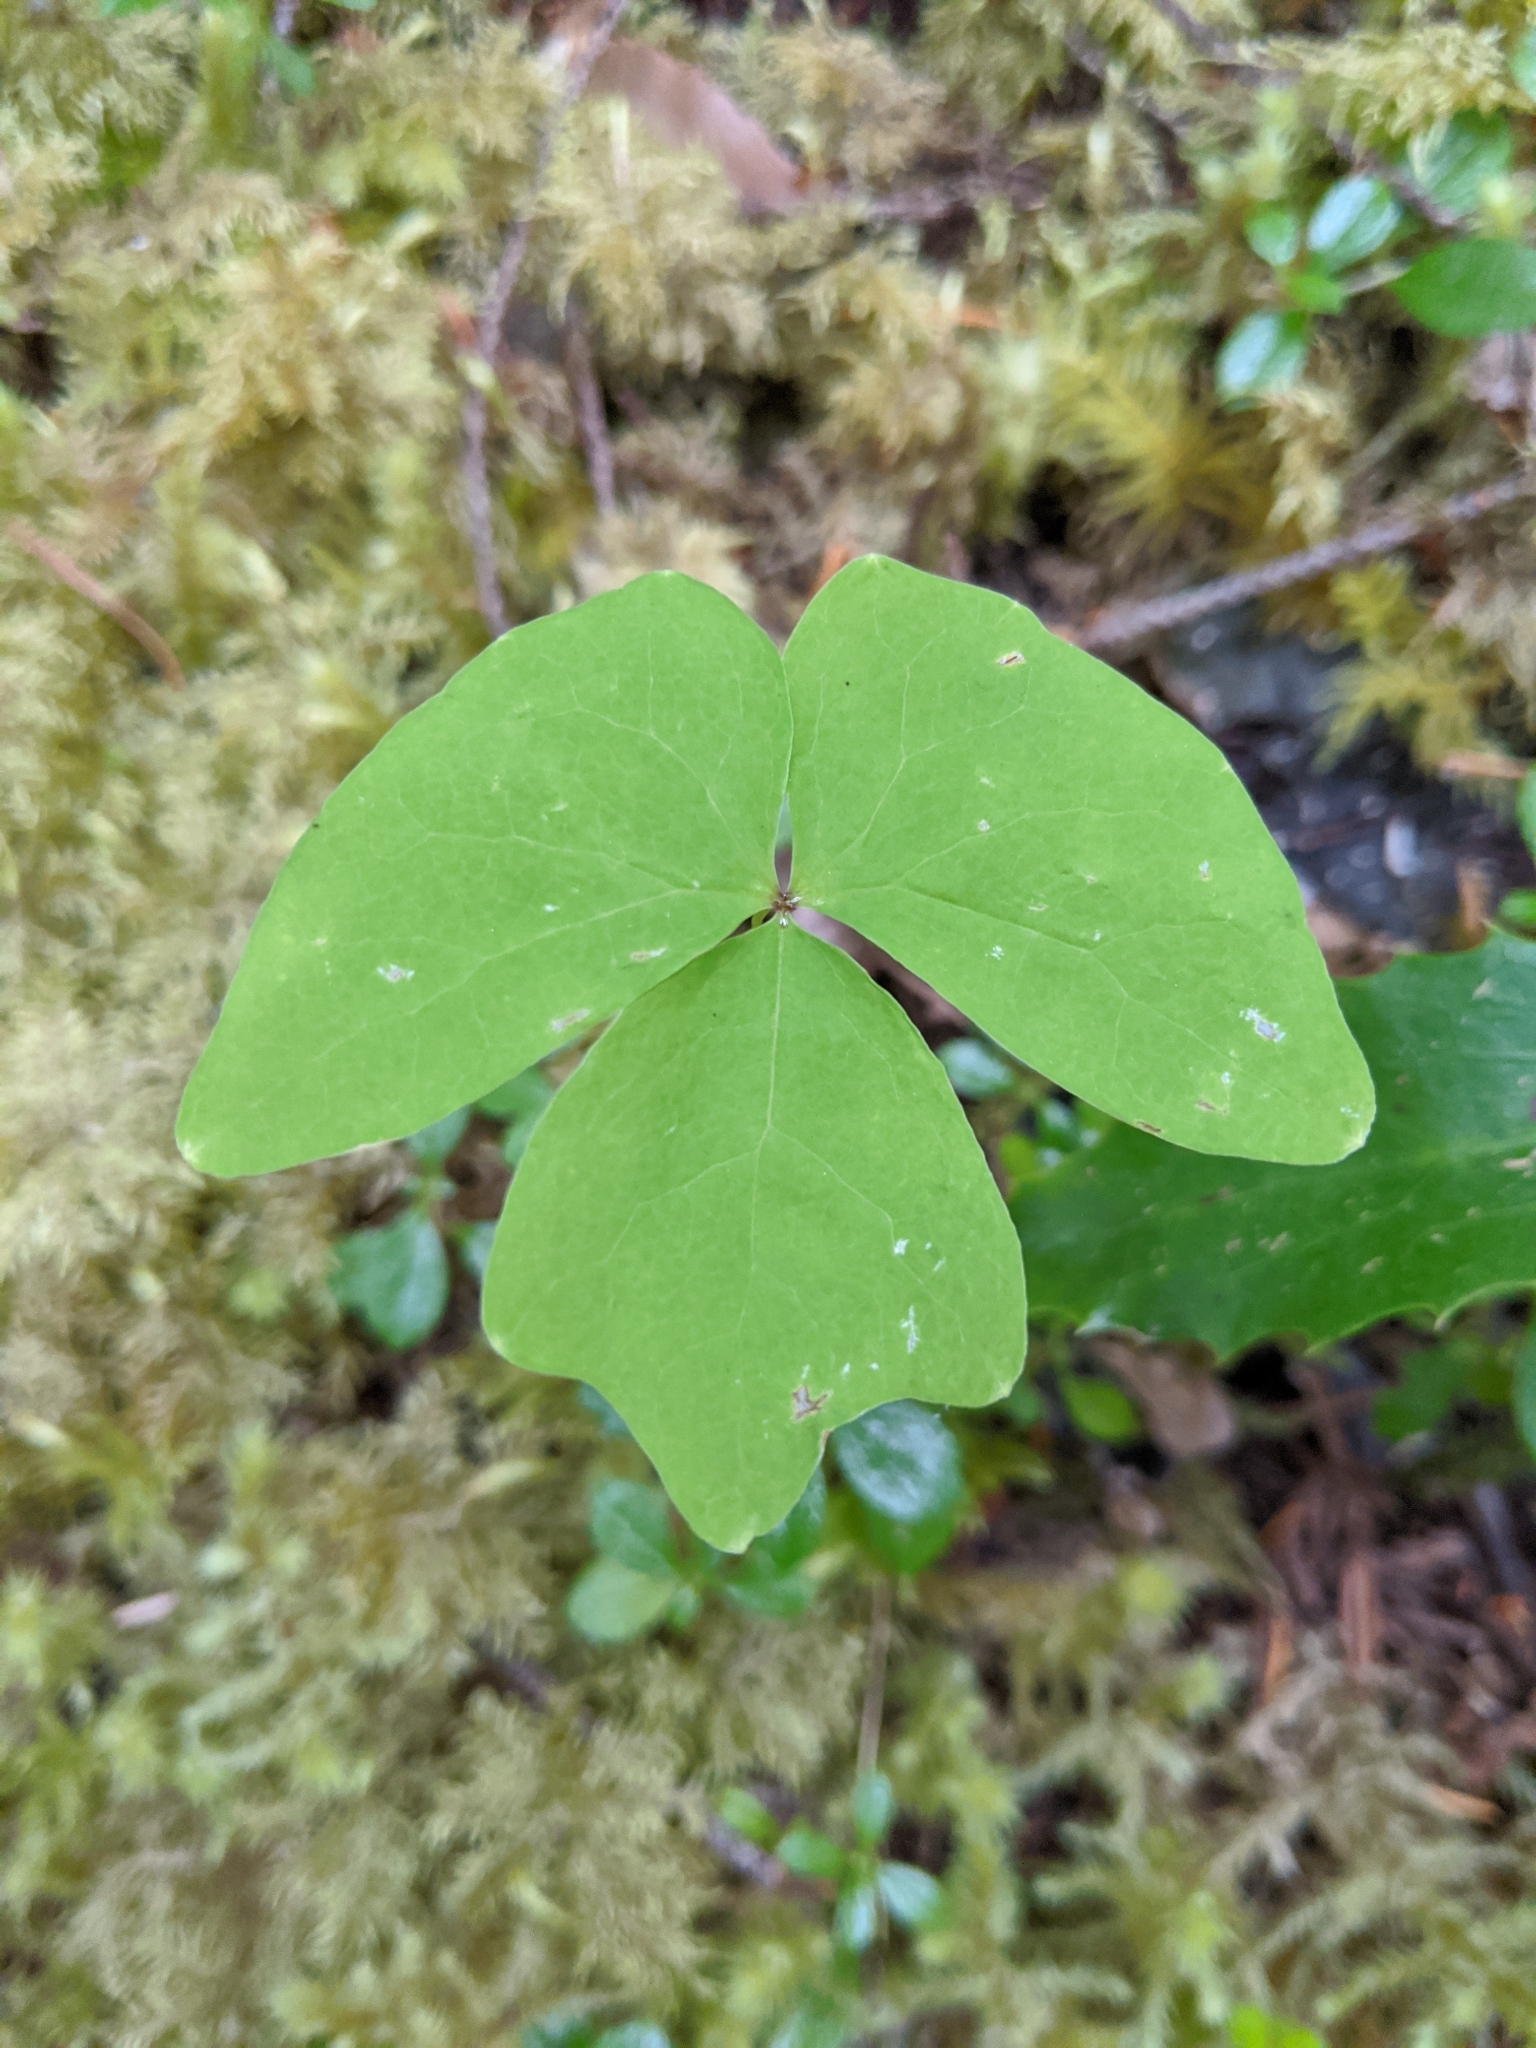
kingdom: Plantae
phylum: Tracheophyta
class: Magnoliopsida
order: Ranunculales
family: Berberidaceae
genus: Achlys
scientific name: Achlys triphylla
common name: Vanilla-leaf
